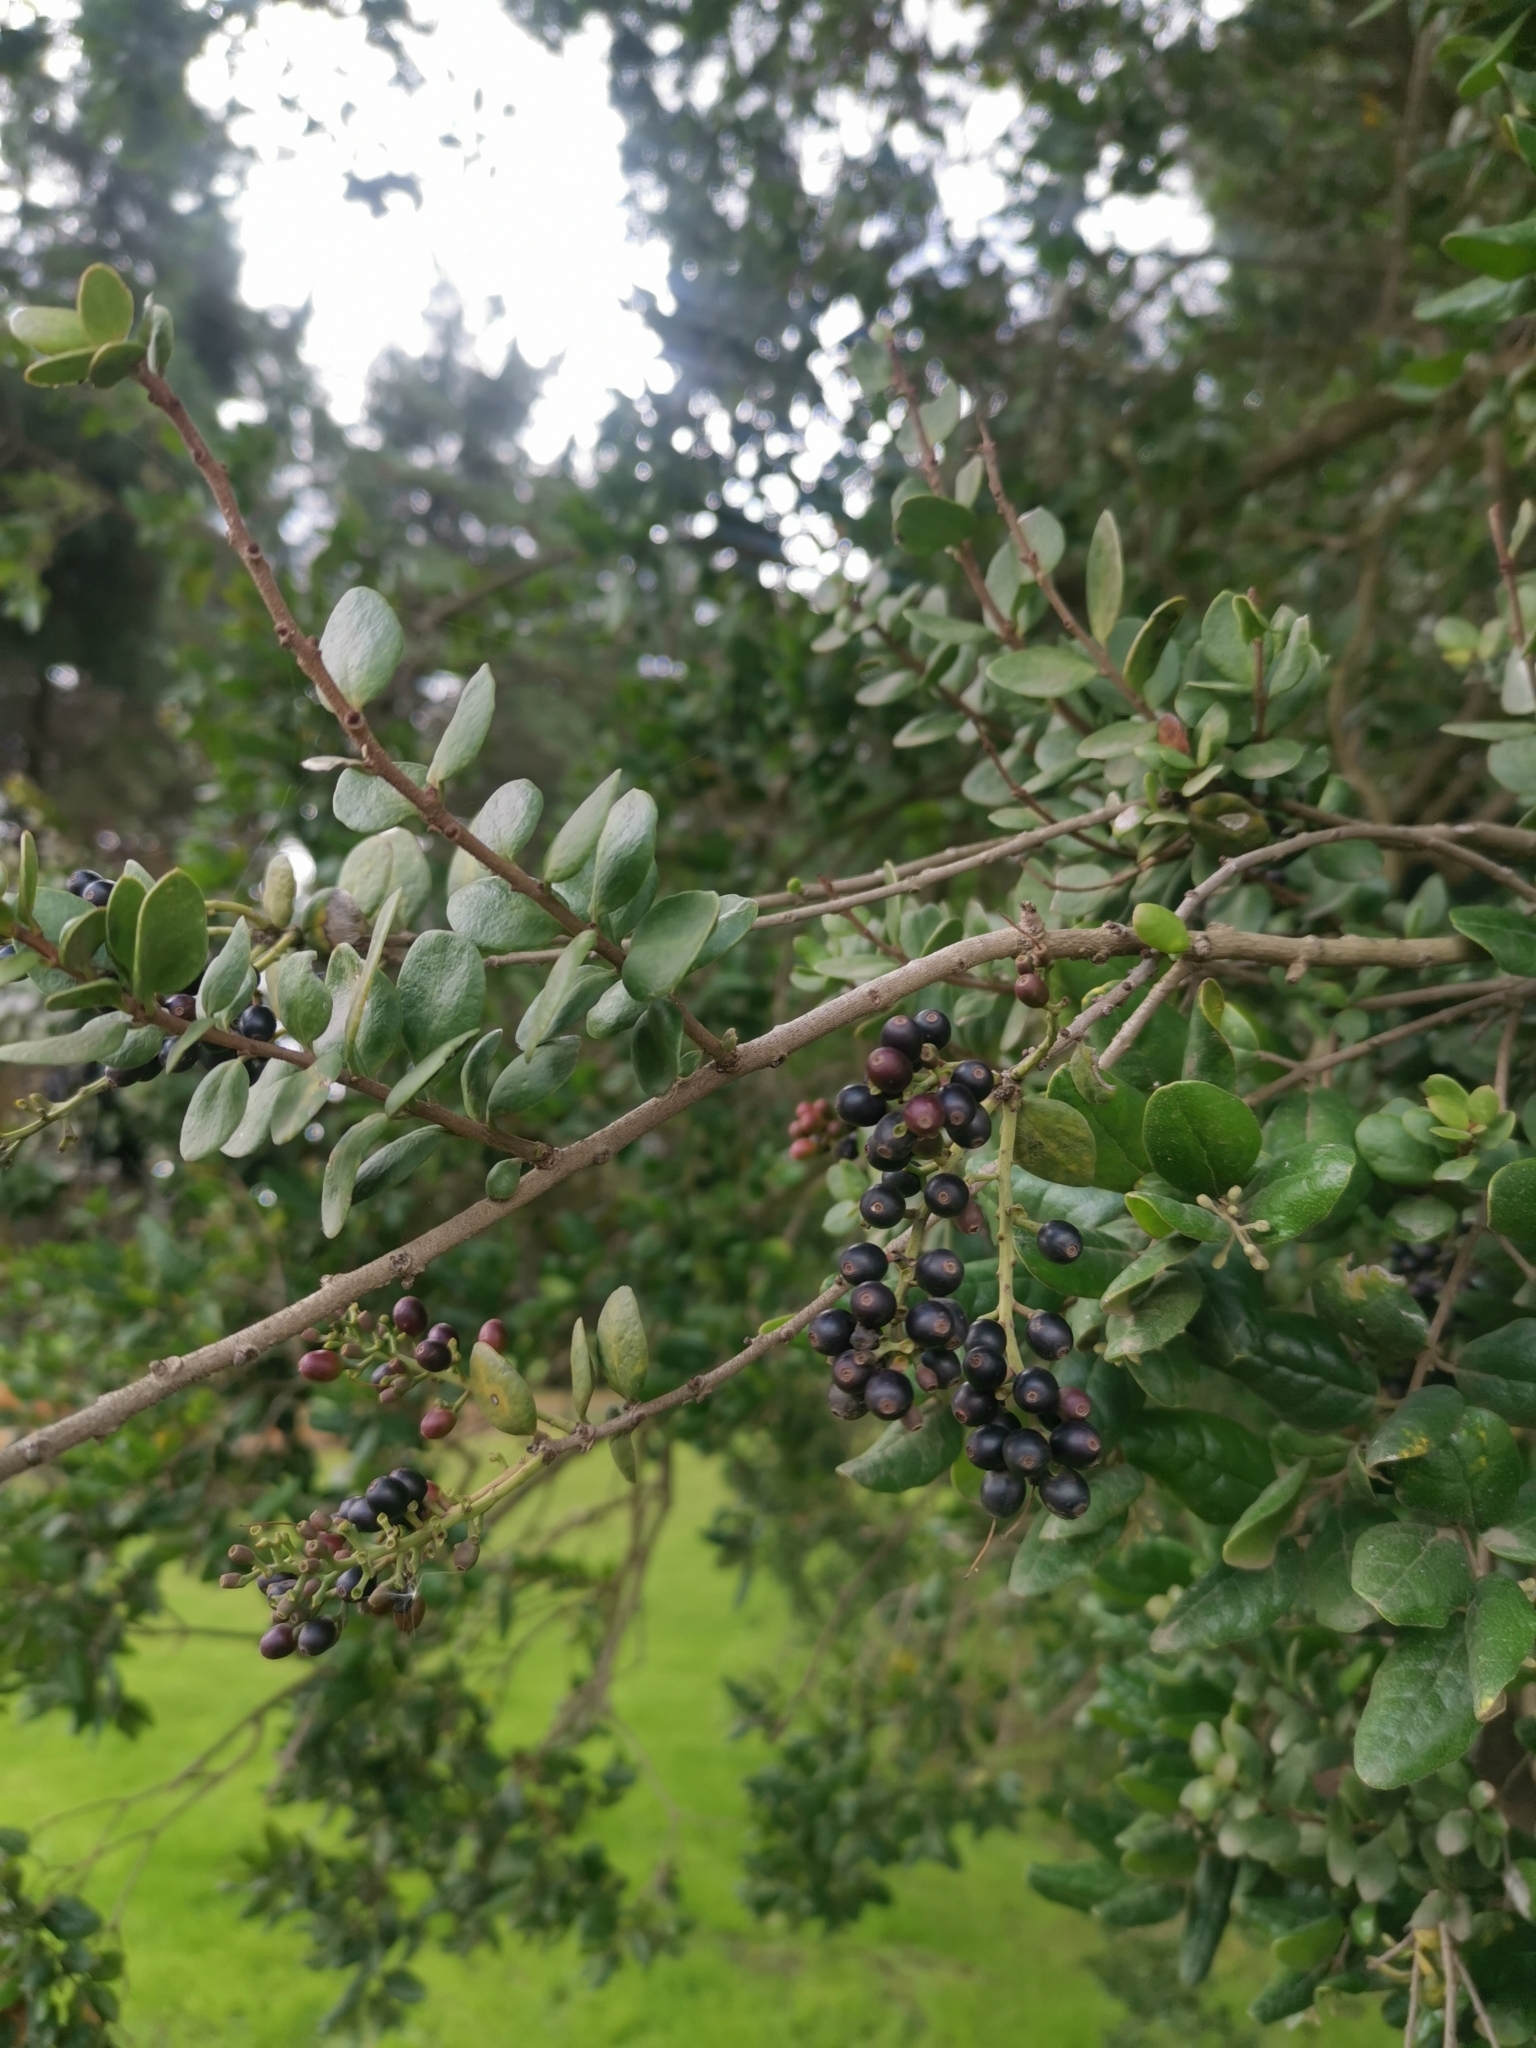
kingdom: Plantae
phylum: Tracheophyta
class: Magnoliopsida
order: Santalales
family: Loranthaceae
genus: Notanthera
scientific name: Notanthera heterophylla
